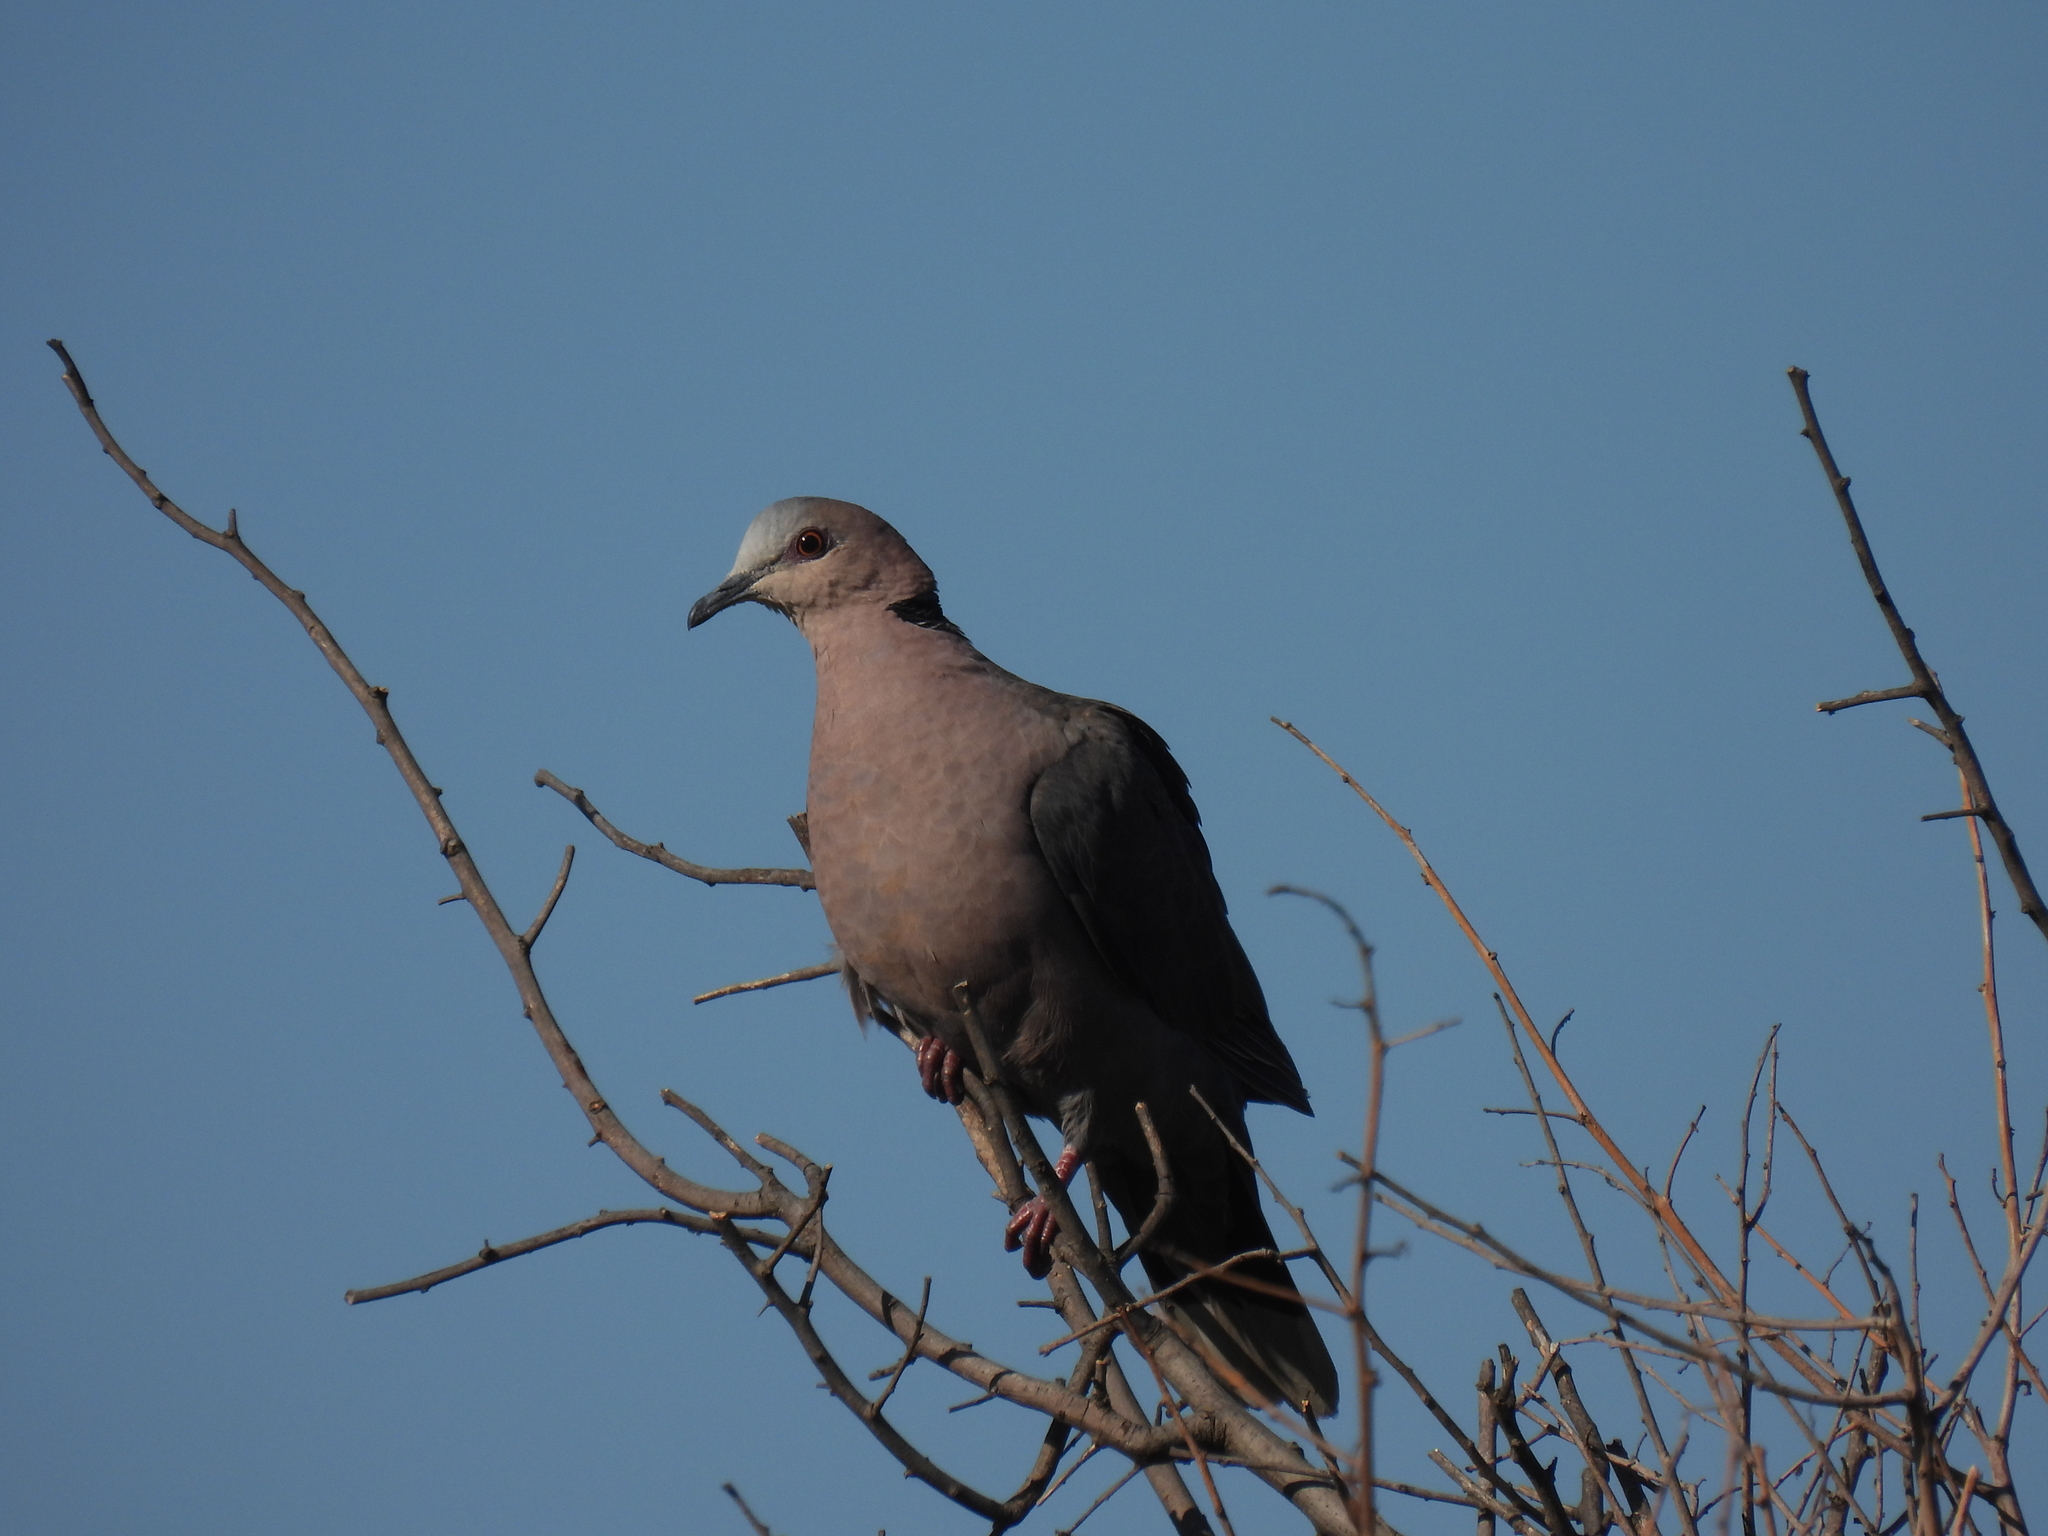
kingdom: Animalia
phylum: Chordata
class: Aves
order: Columbiformes
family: Columbidae
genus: Streptopelia
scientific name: Streptopelia semitorquata
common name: Red-eyed dove
